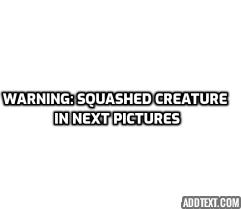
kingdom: Animalia
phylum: Chordata
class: Aves
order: Passeriformes
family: Passerellidae
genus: Junco
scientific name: Junco hyemalis
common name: Dark-eyed junco
